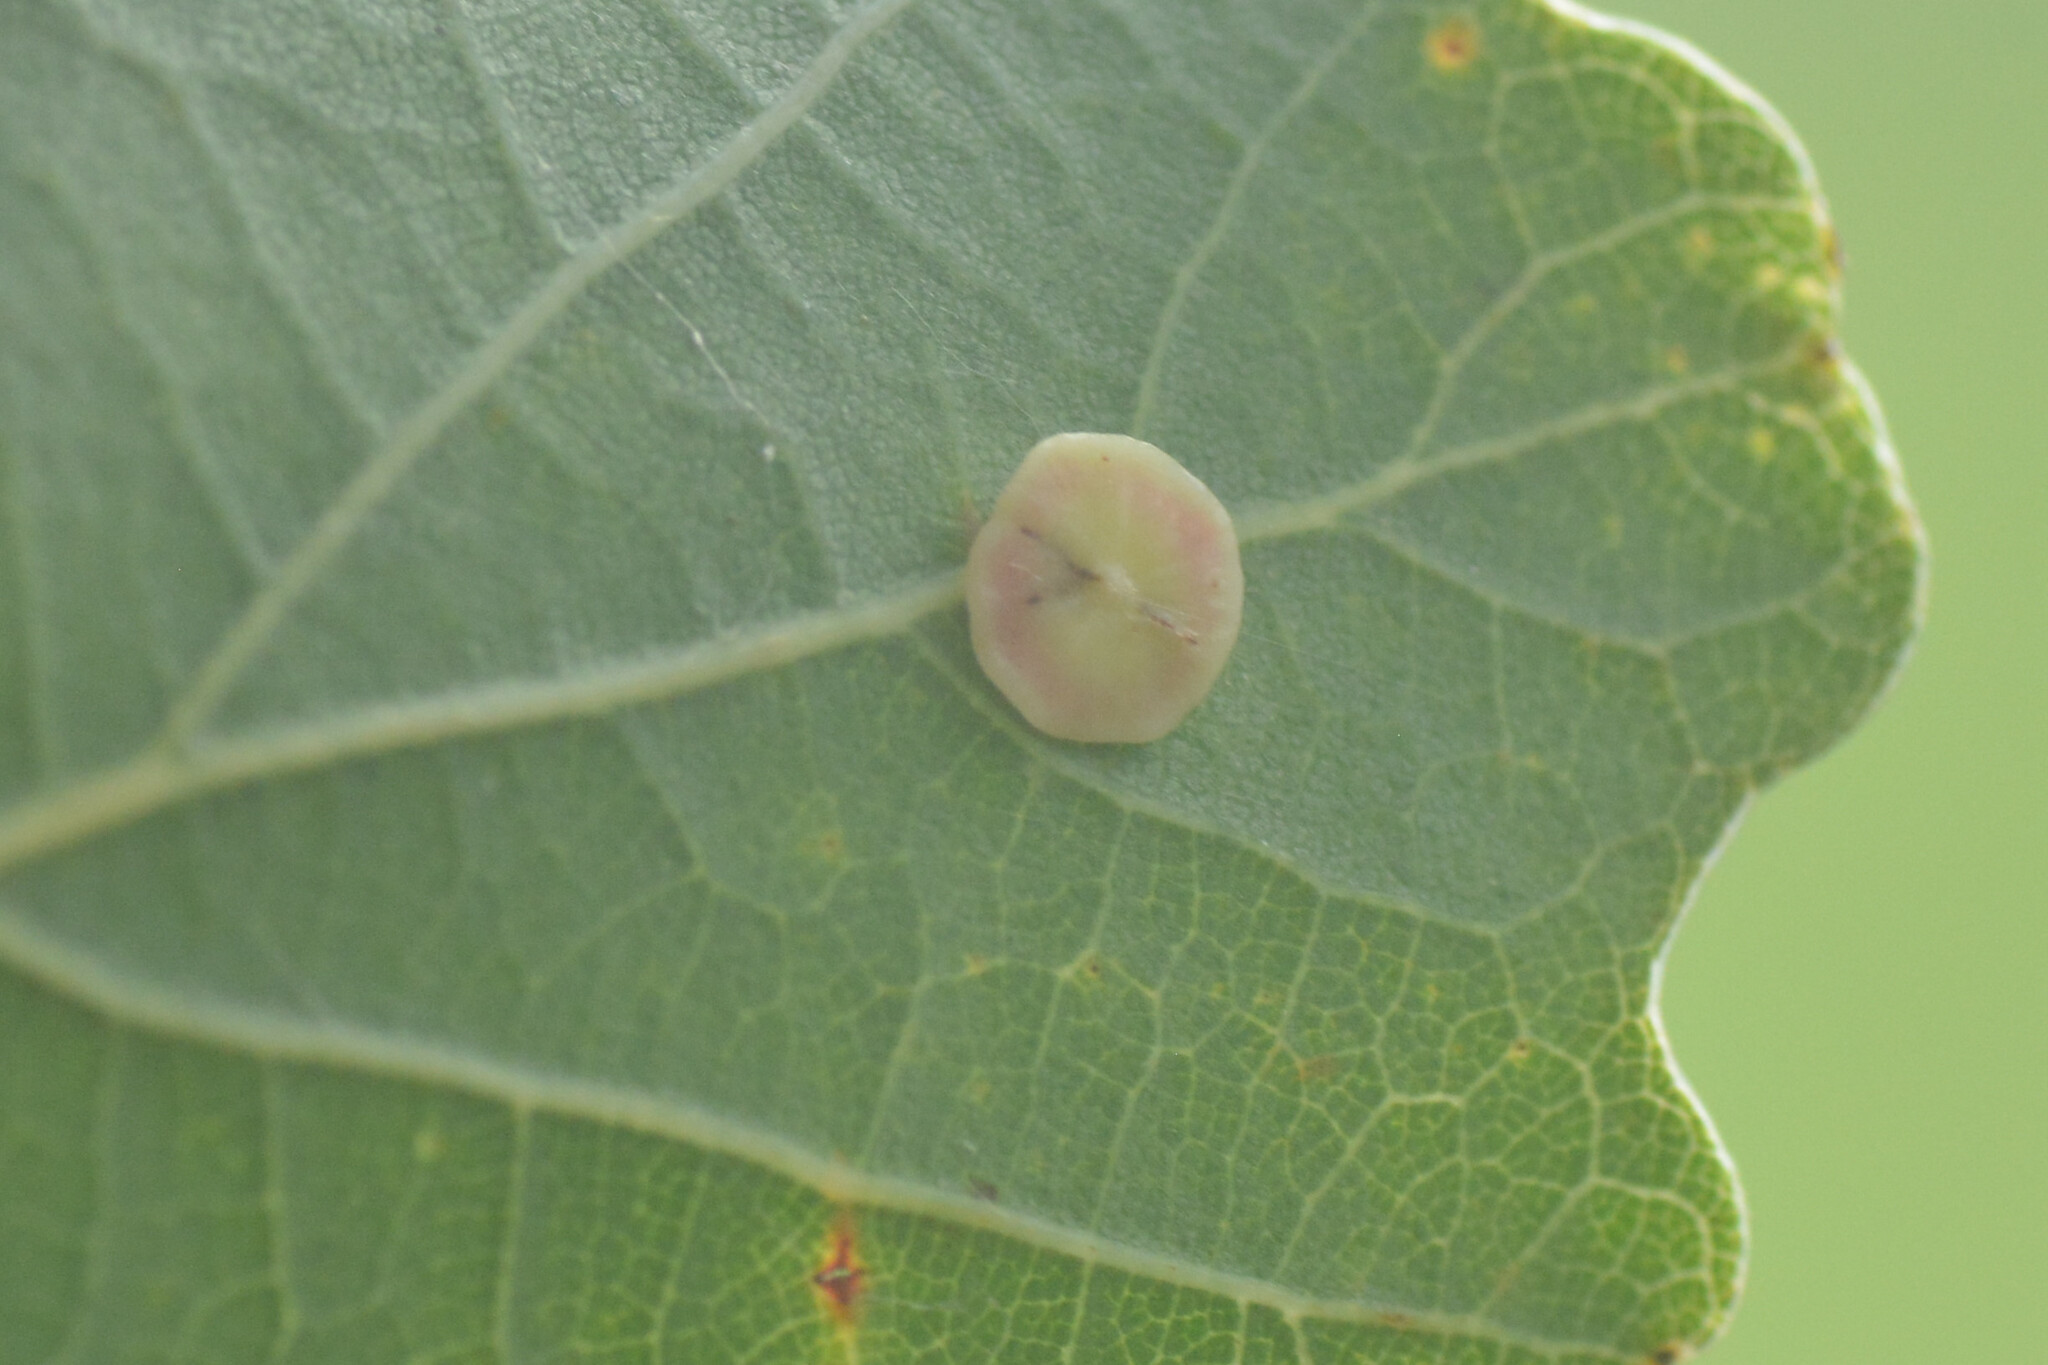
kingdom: Animalia
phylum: Arthropoda
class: Insecta
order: Hymenoptera
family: Cynipidae
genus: Neuroterus
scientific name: Neuroterus albipes
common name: Smooth spangle gall
